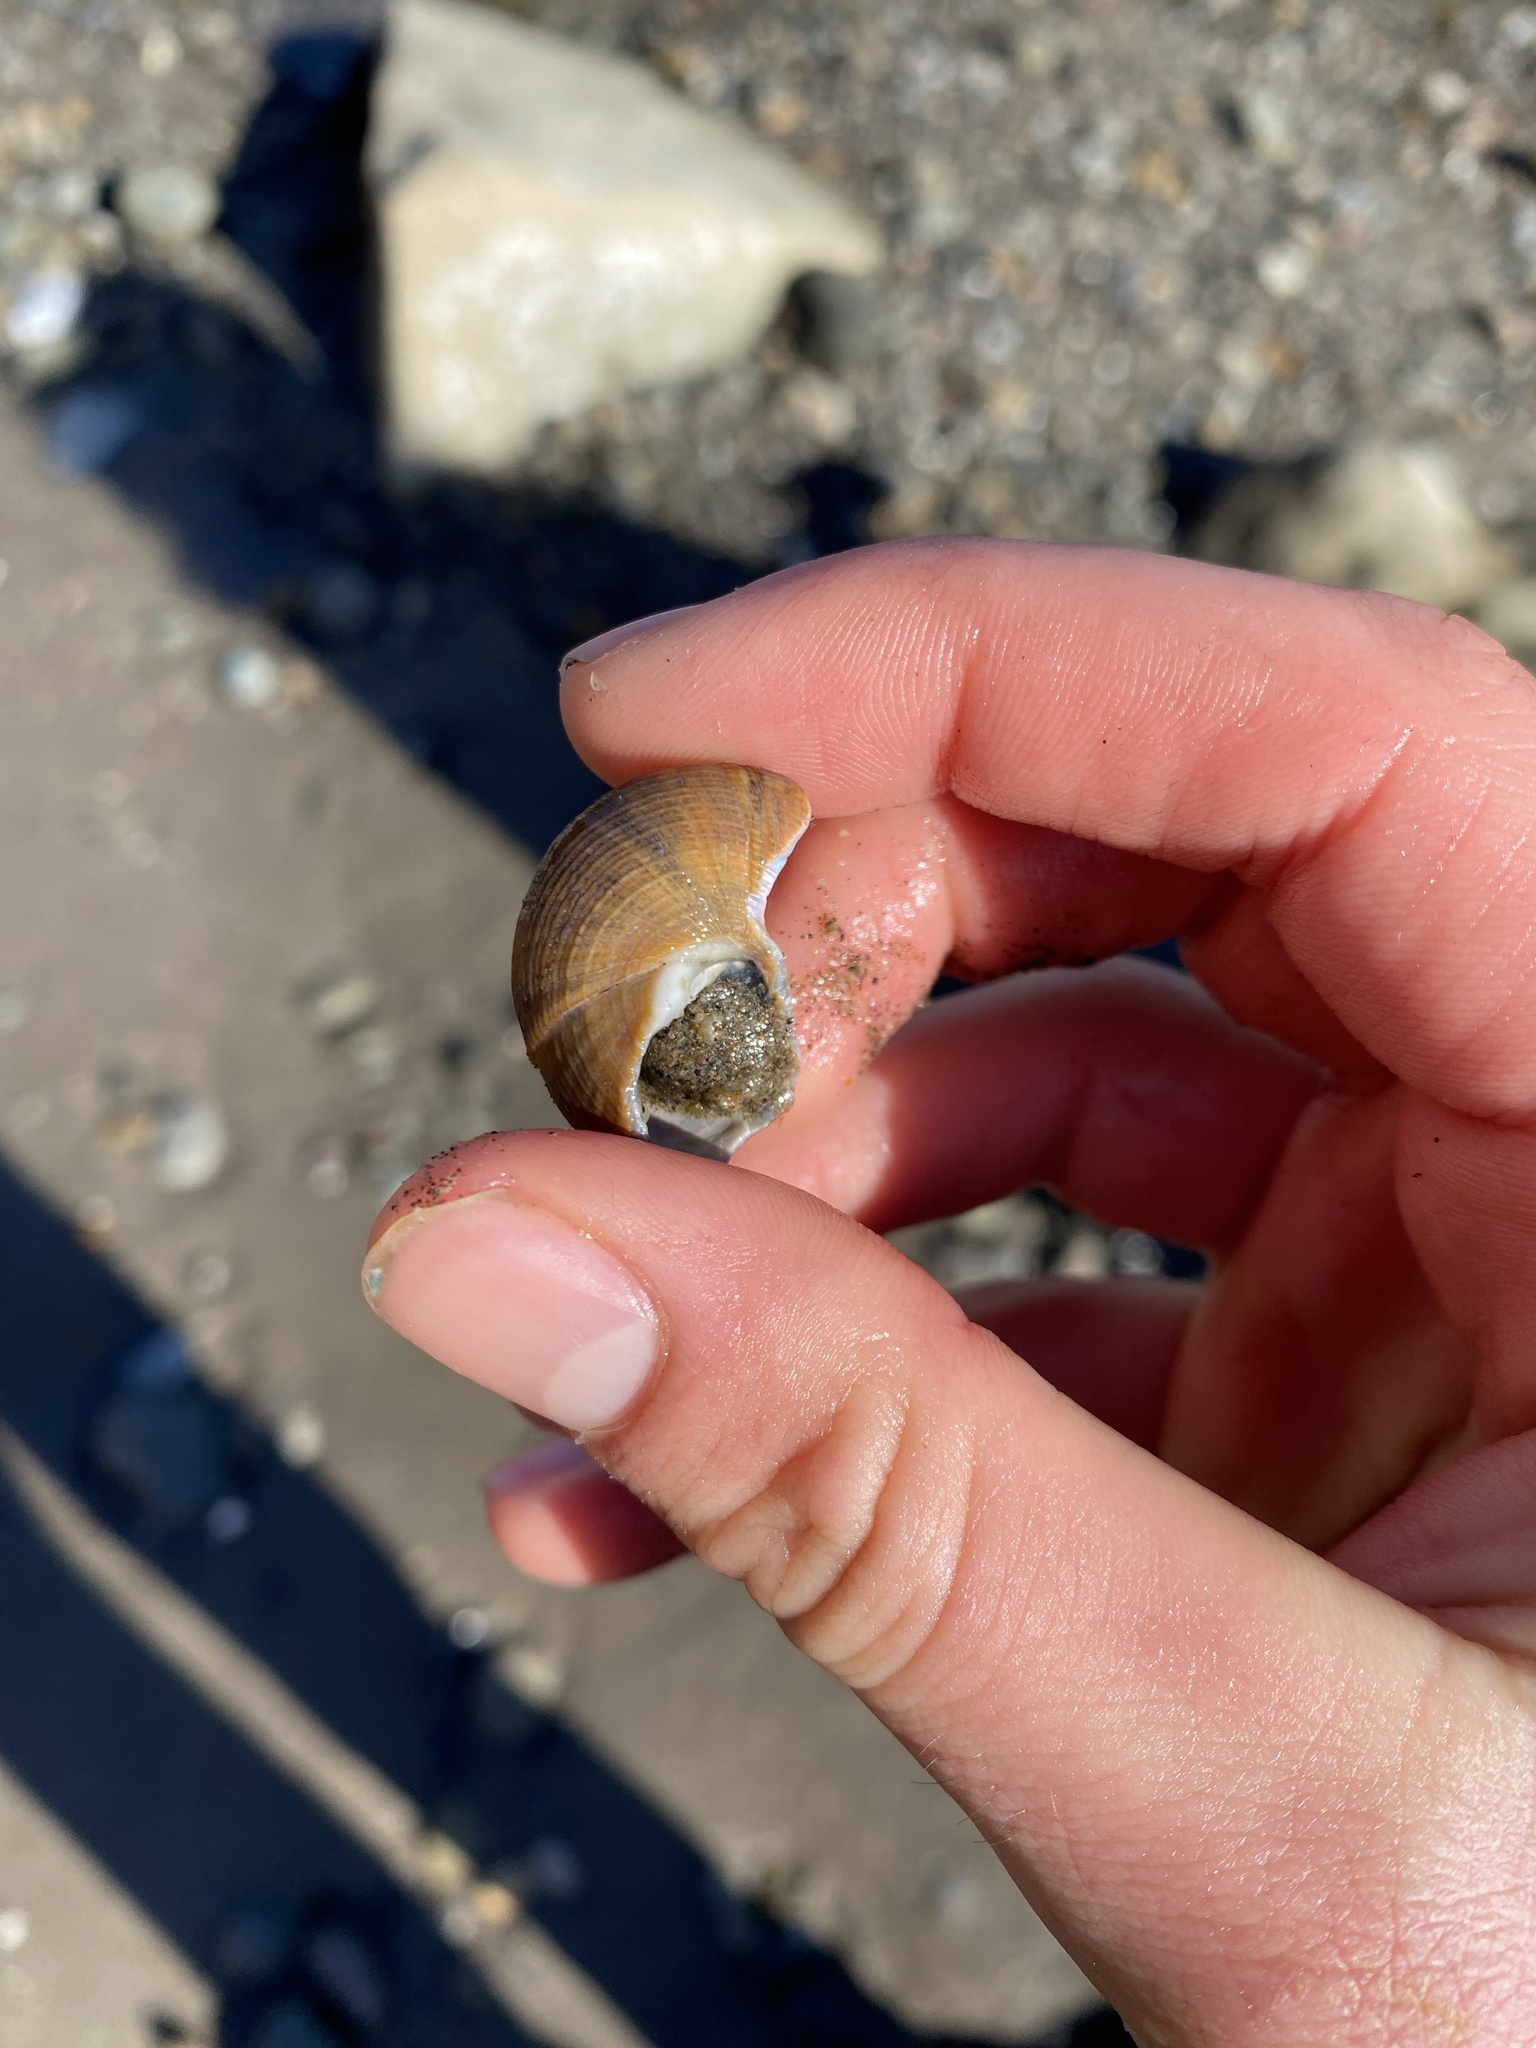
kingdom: Animalia
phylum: Mollusca
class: Gastropoda
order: Trochida
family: Calliostomatidae
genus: Calliostoma
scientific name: Calliostoma gloriosum
